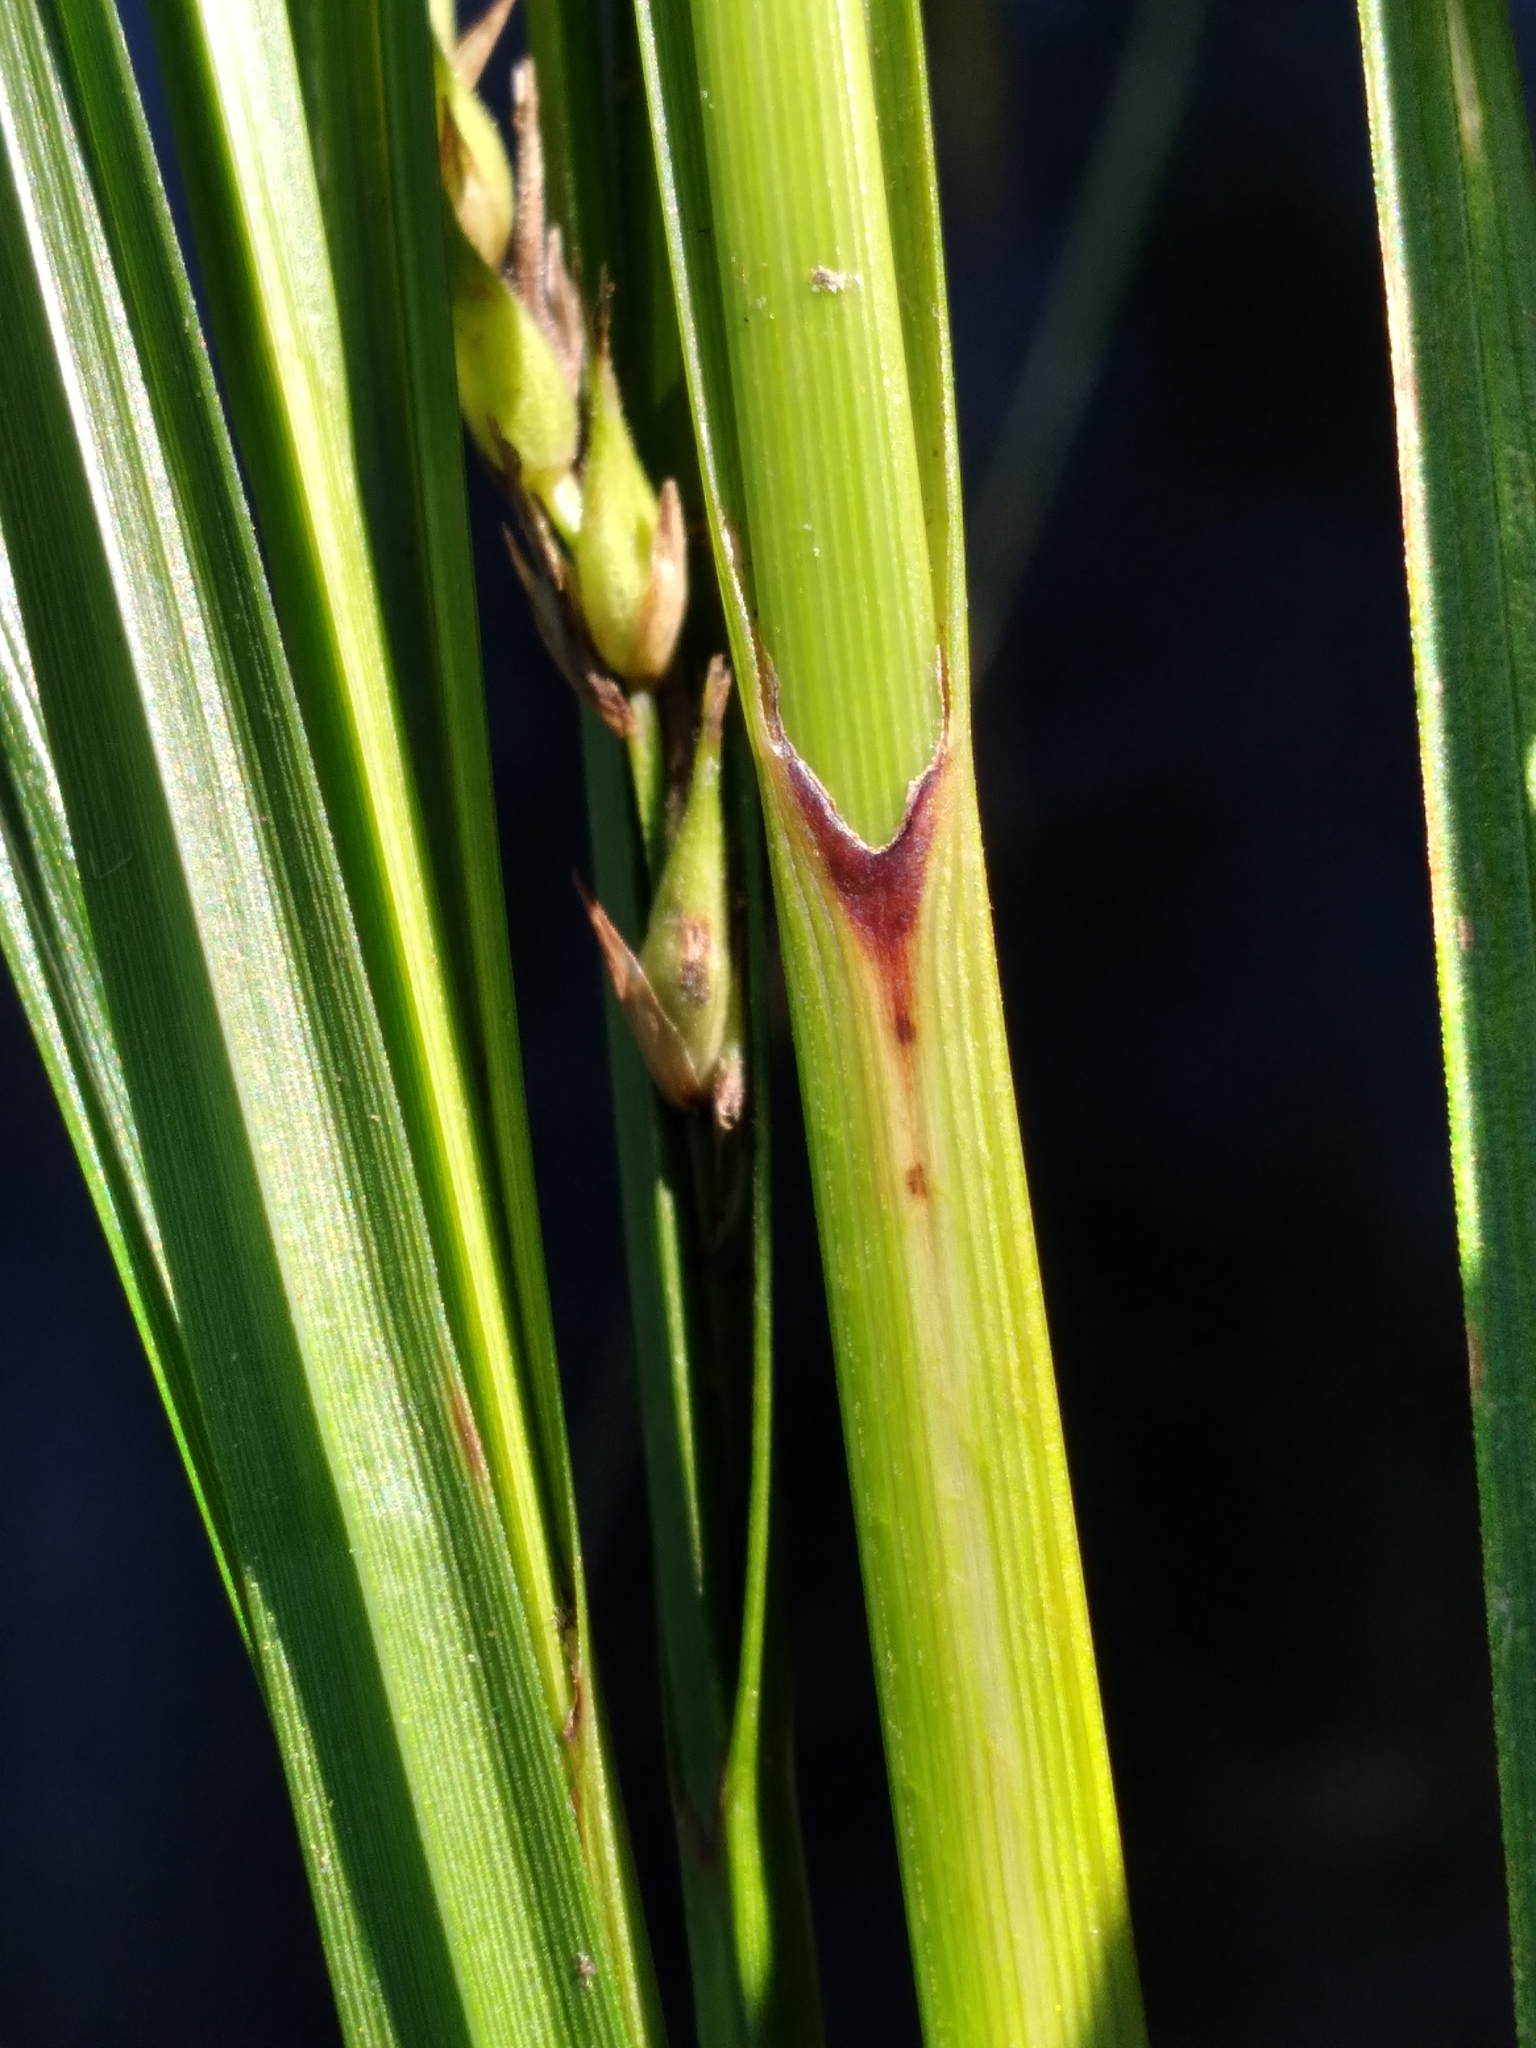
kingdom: Plantae
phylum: Tracheophyta
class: Liliopsida
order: Poales
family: Cyperaceae
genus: Carex
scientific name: Carex trichocarpa
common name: Hairy-fruited lake sedge
